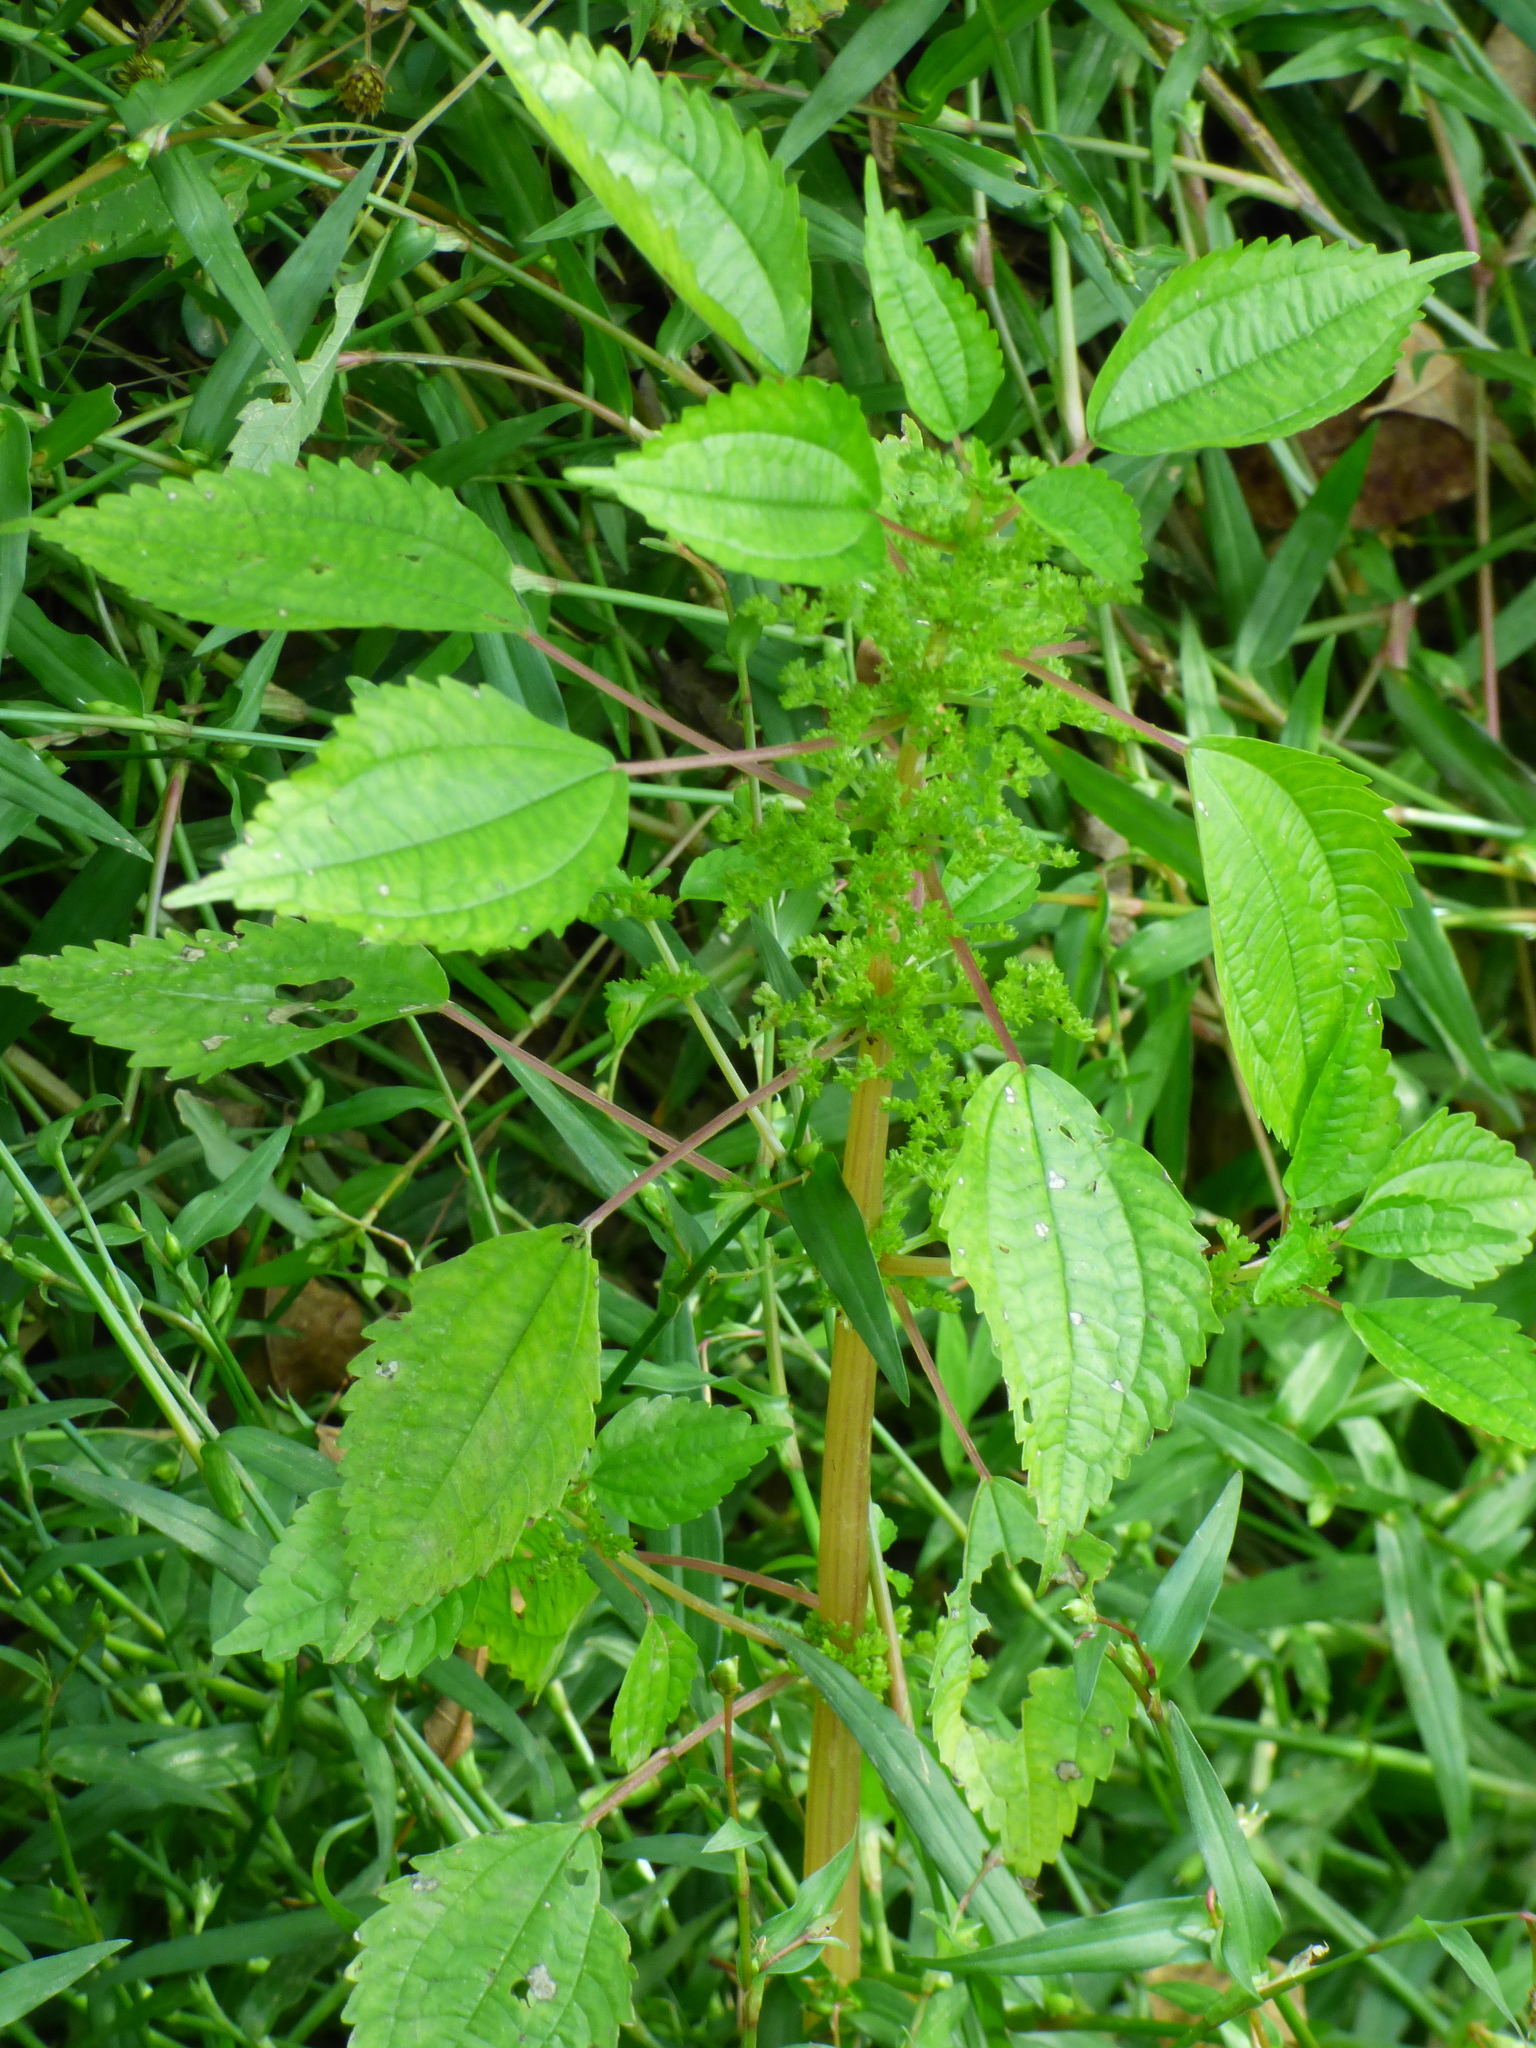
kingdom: Plantae
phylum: Tracheophyta
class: Magnoliopsida
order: Rosales
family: Urticaceae
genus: Pilea
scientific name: Pilea pumila
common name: Clearweed
